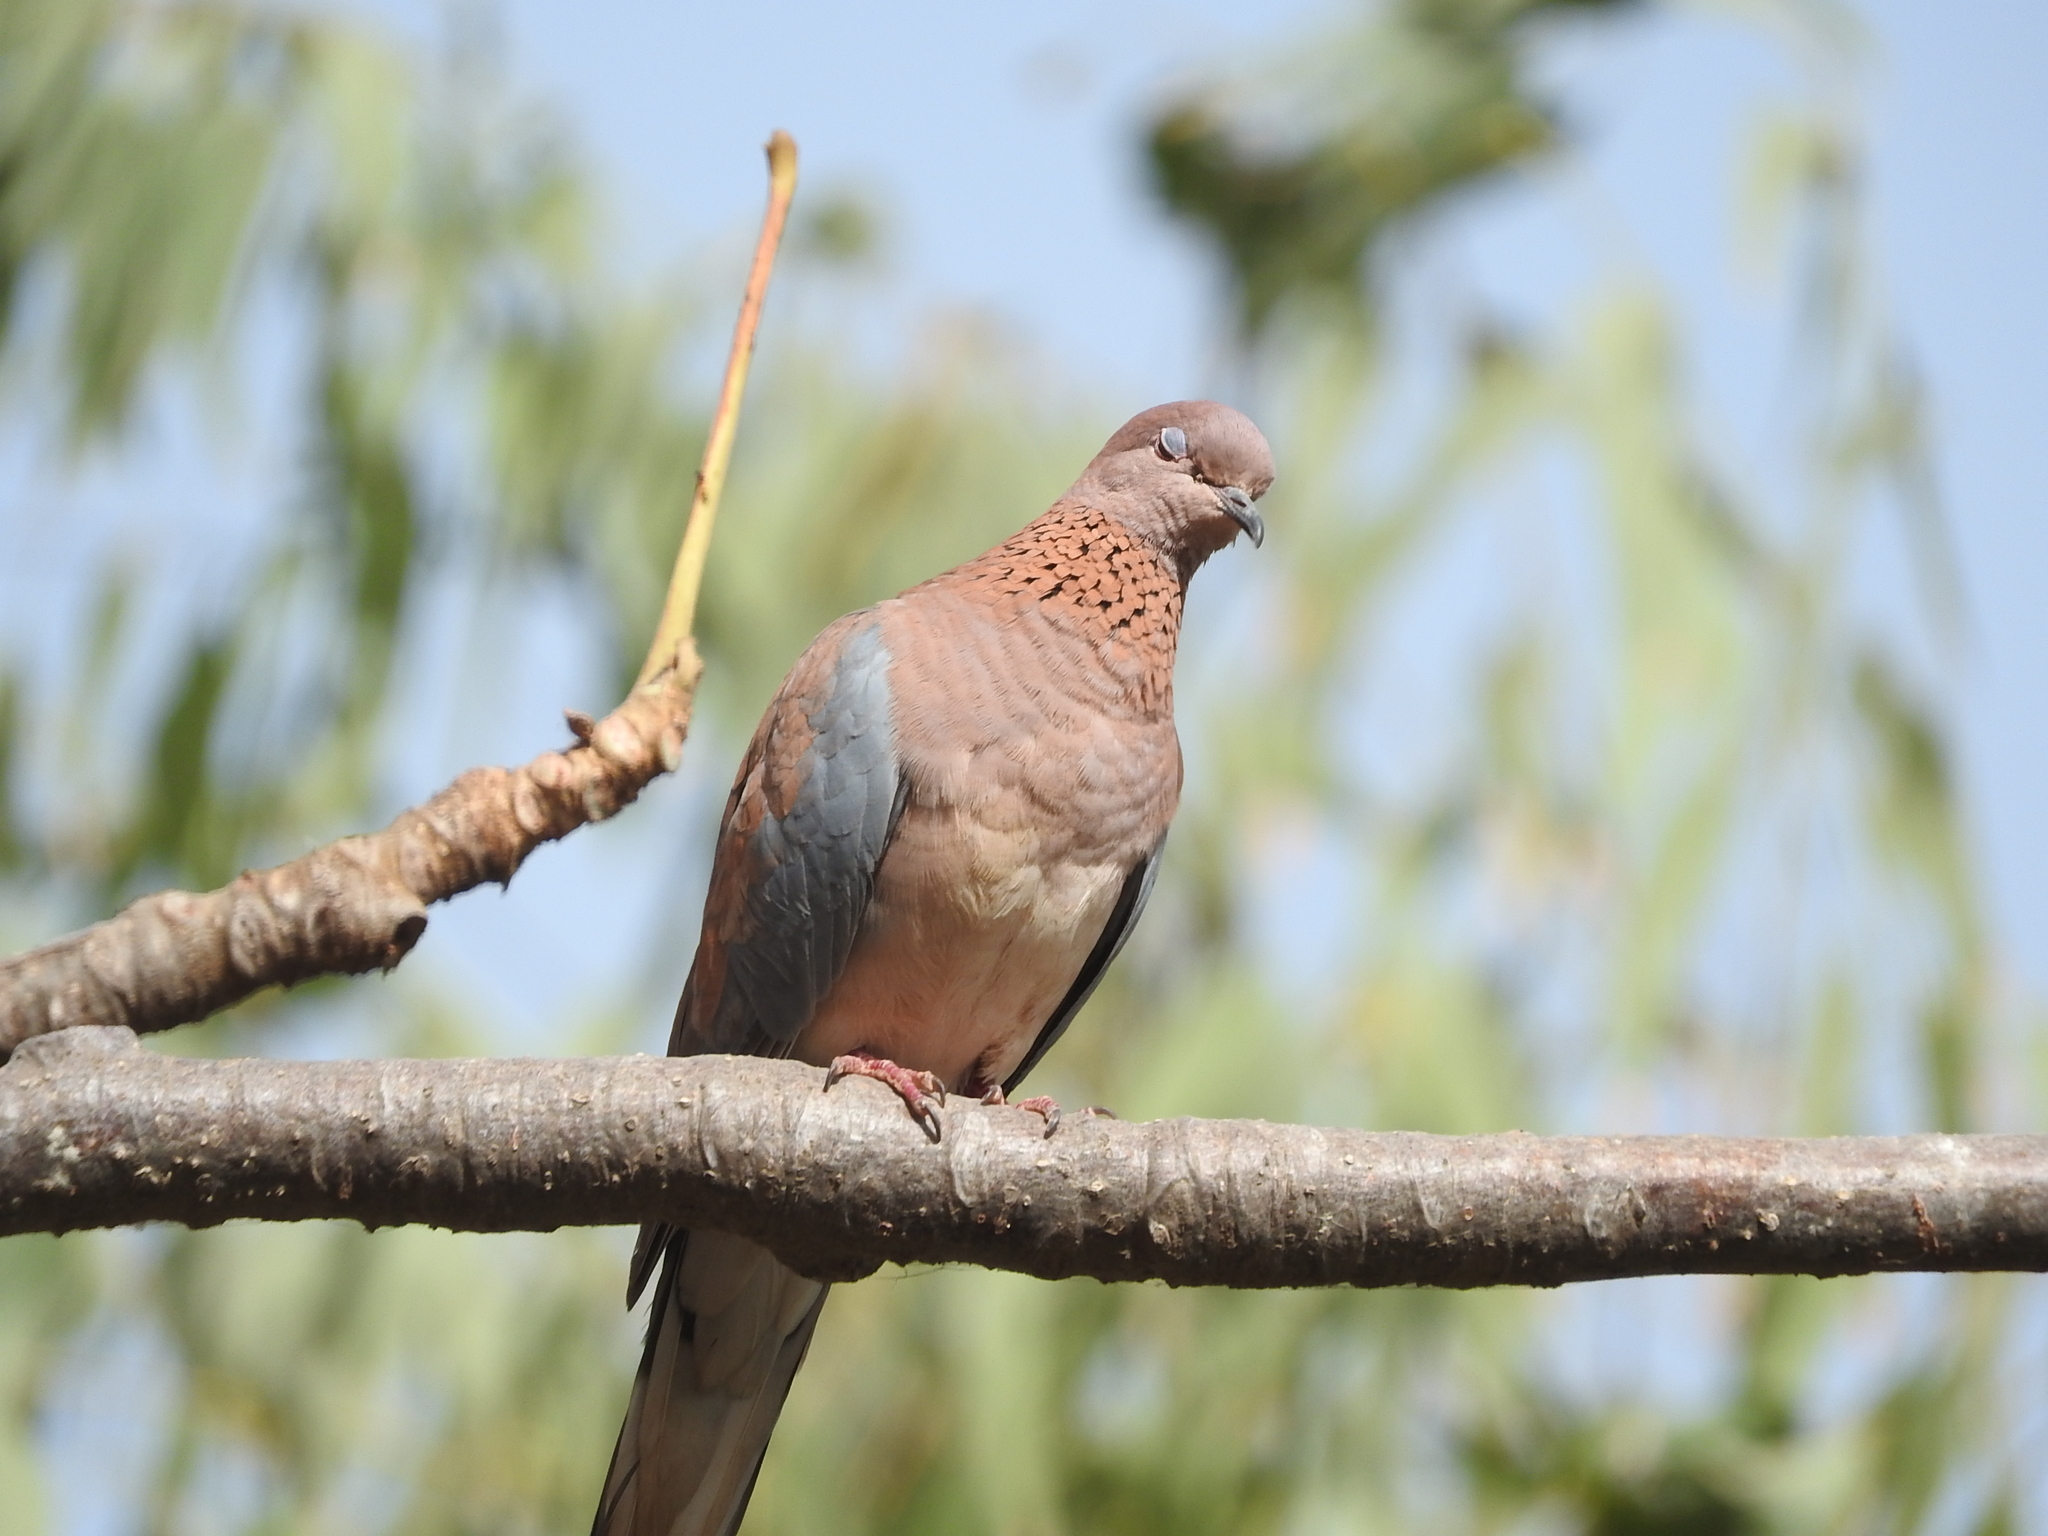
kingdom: Animalia
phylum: Chordata
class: Aves
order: Columbiformes
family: Columbidae
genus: Spilopelia
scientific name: Spilopelia senegalensis
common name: Laughing dove
